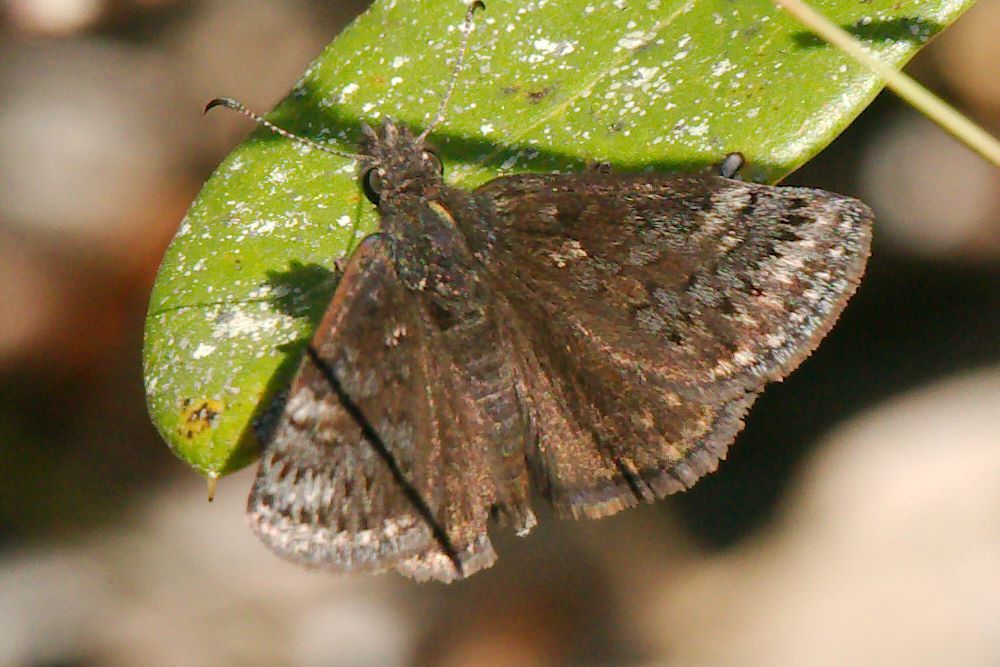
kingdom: Animalia
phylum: Arthropoda
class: Insecta
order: Lepidoptera
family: Hesperiidae
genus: Erynnis
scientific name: Erynnis brizo
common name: Sleepy duskywing
